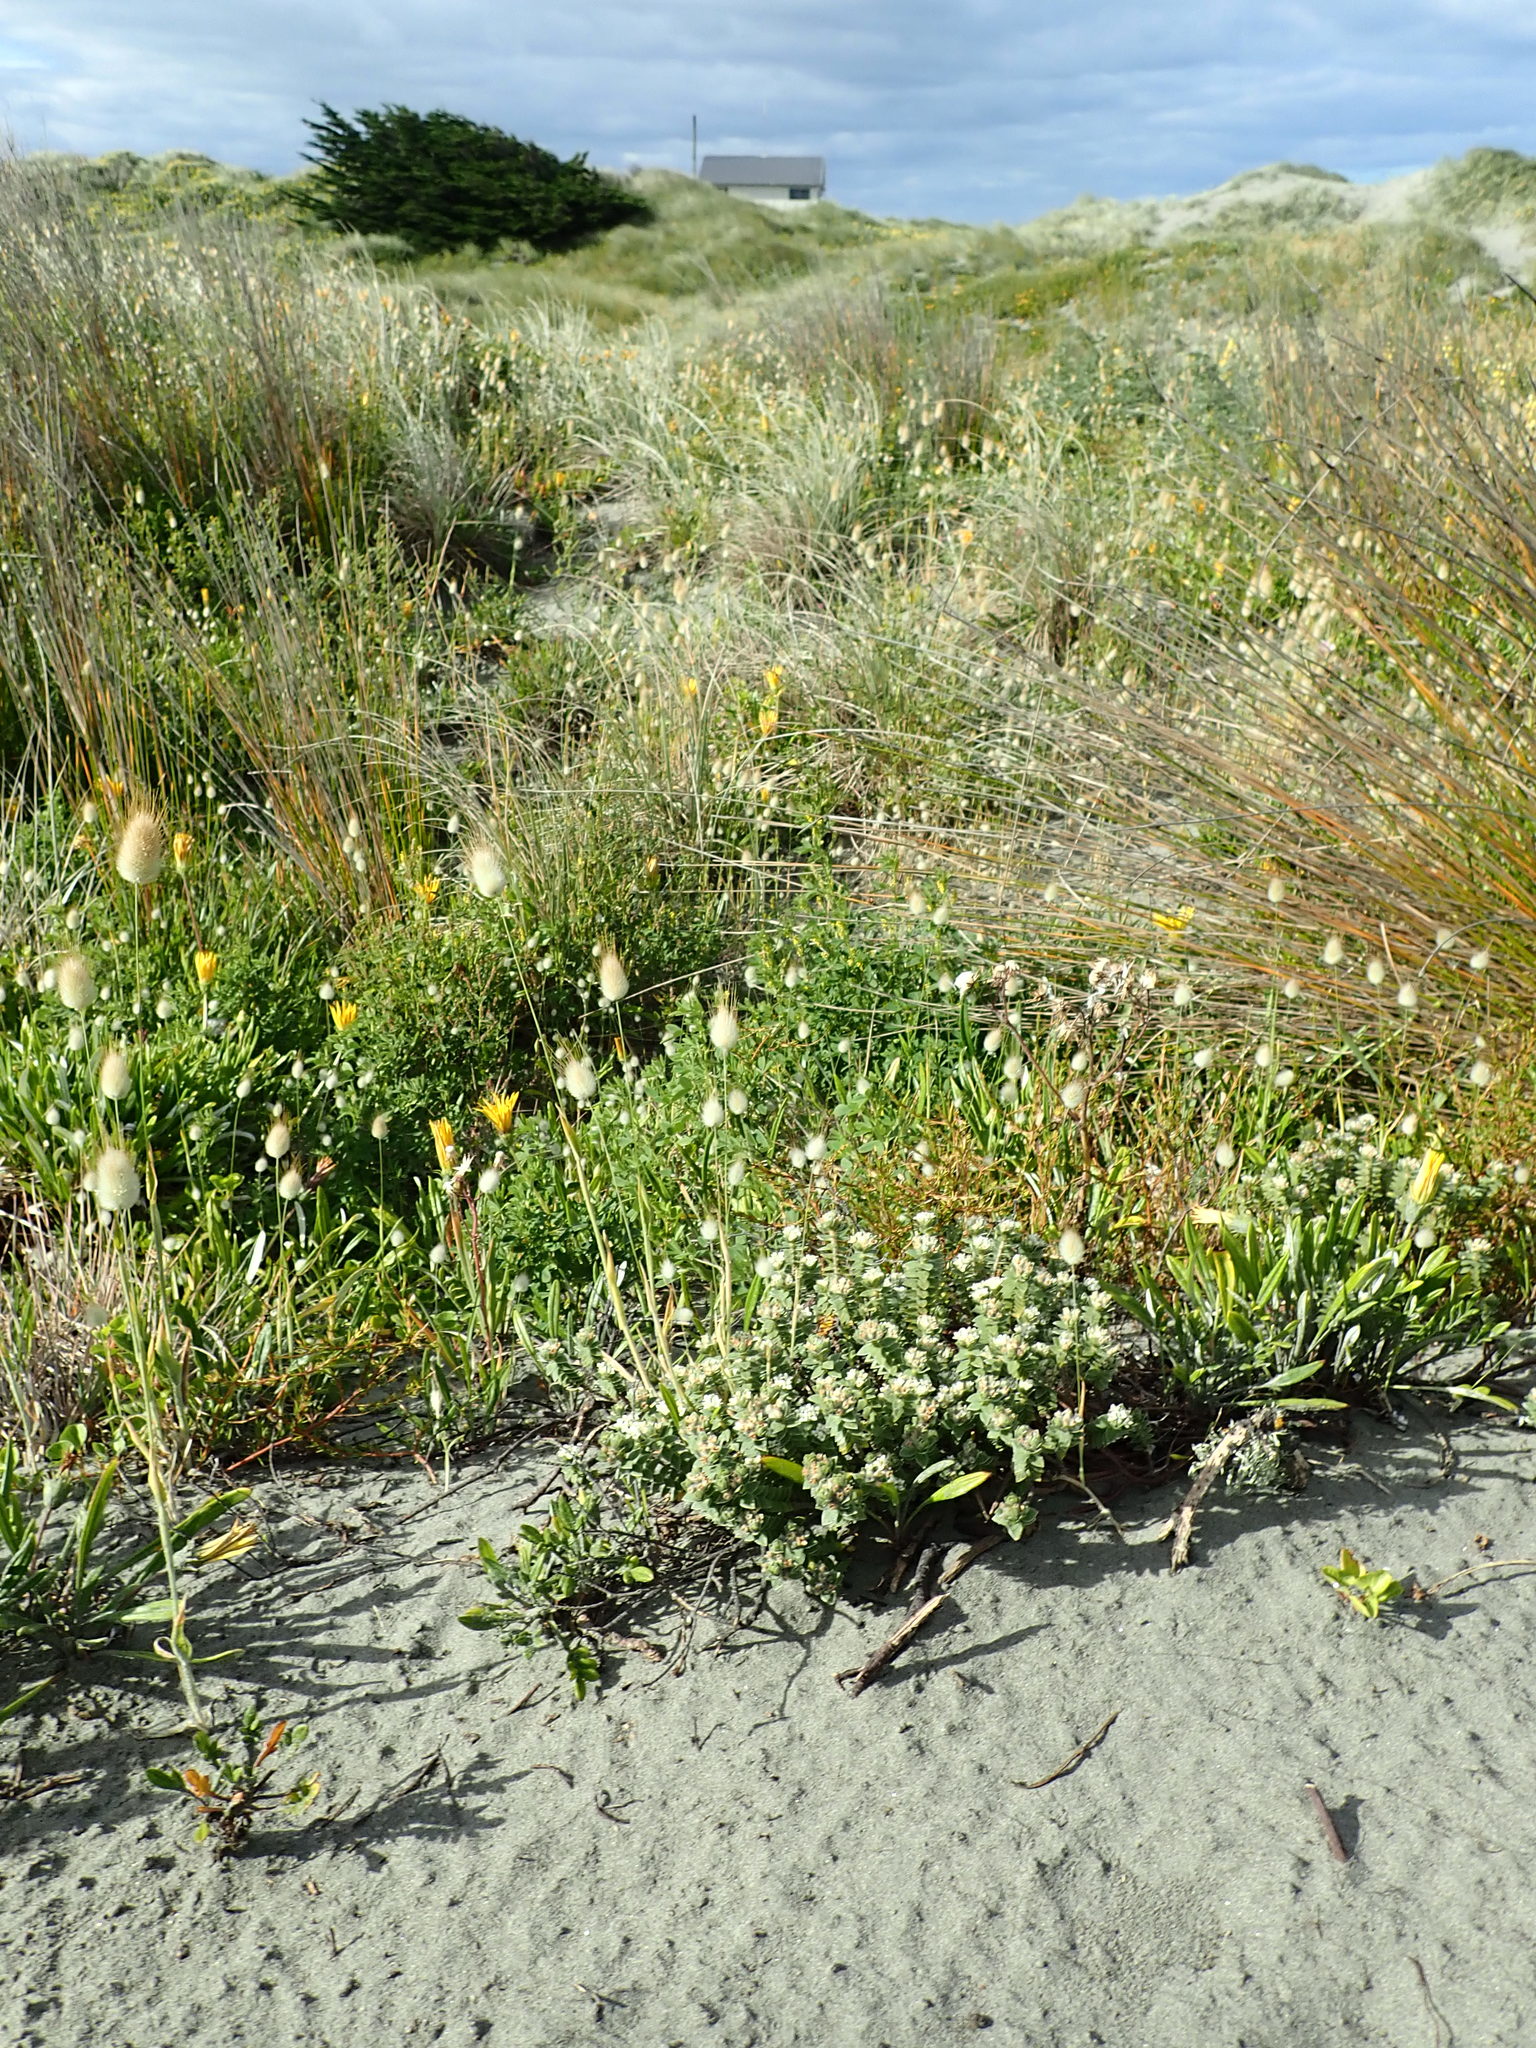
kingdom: Plantae
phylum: Tracheophyta
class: Magnoliopsida
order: Malvales
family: Thymelaeaceae
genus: Pimelea
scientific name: Pimelea villosa
